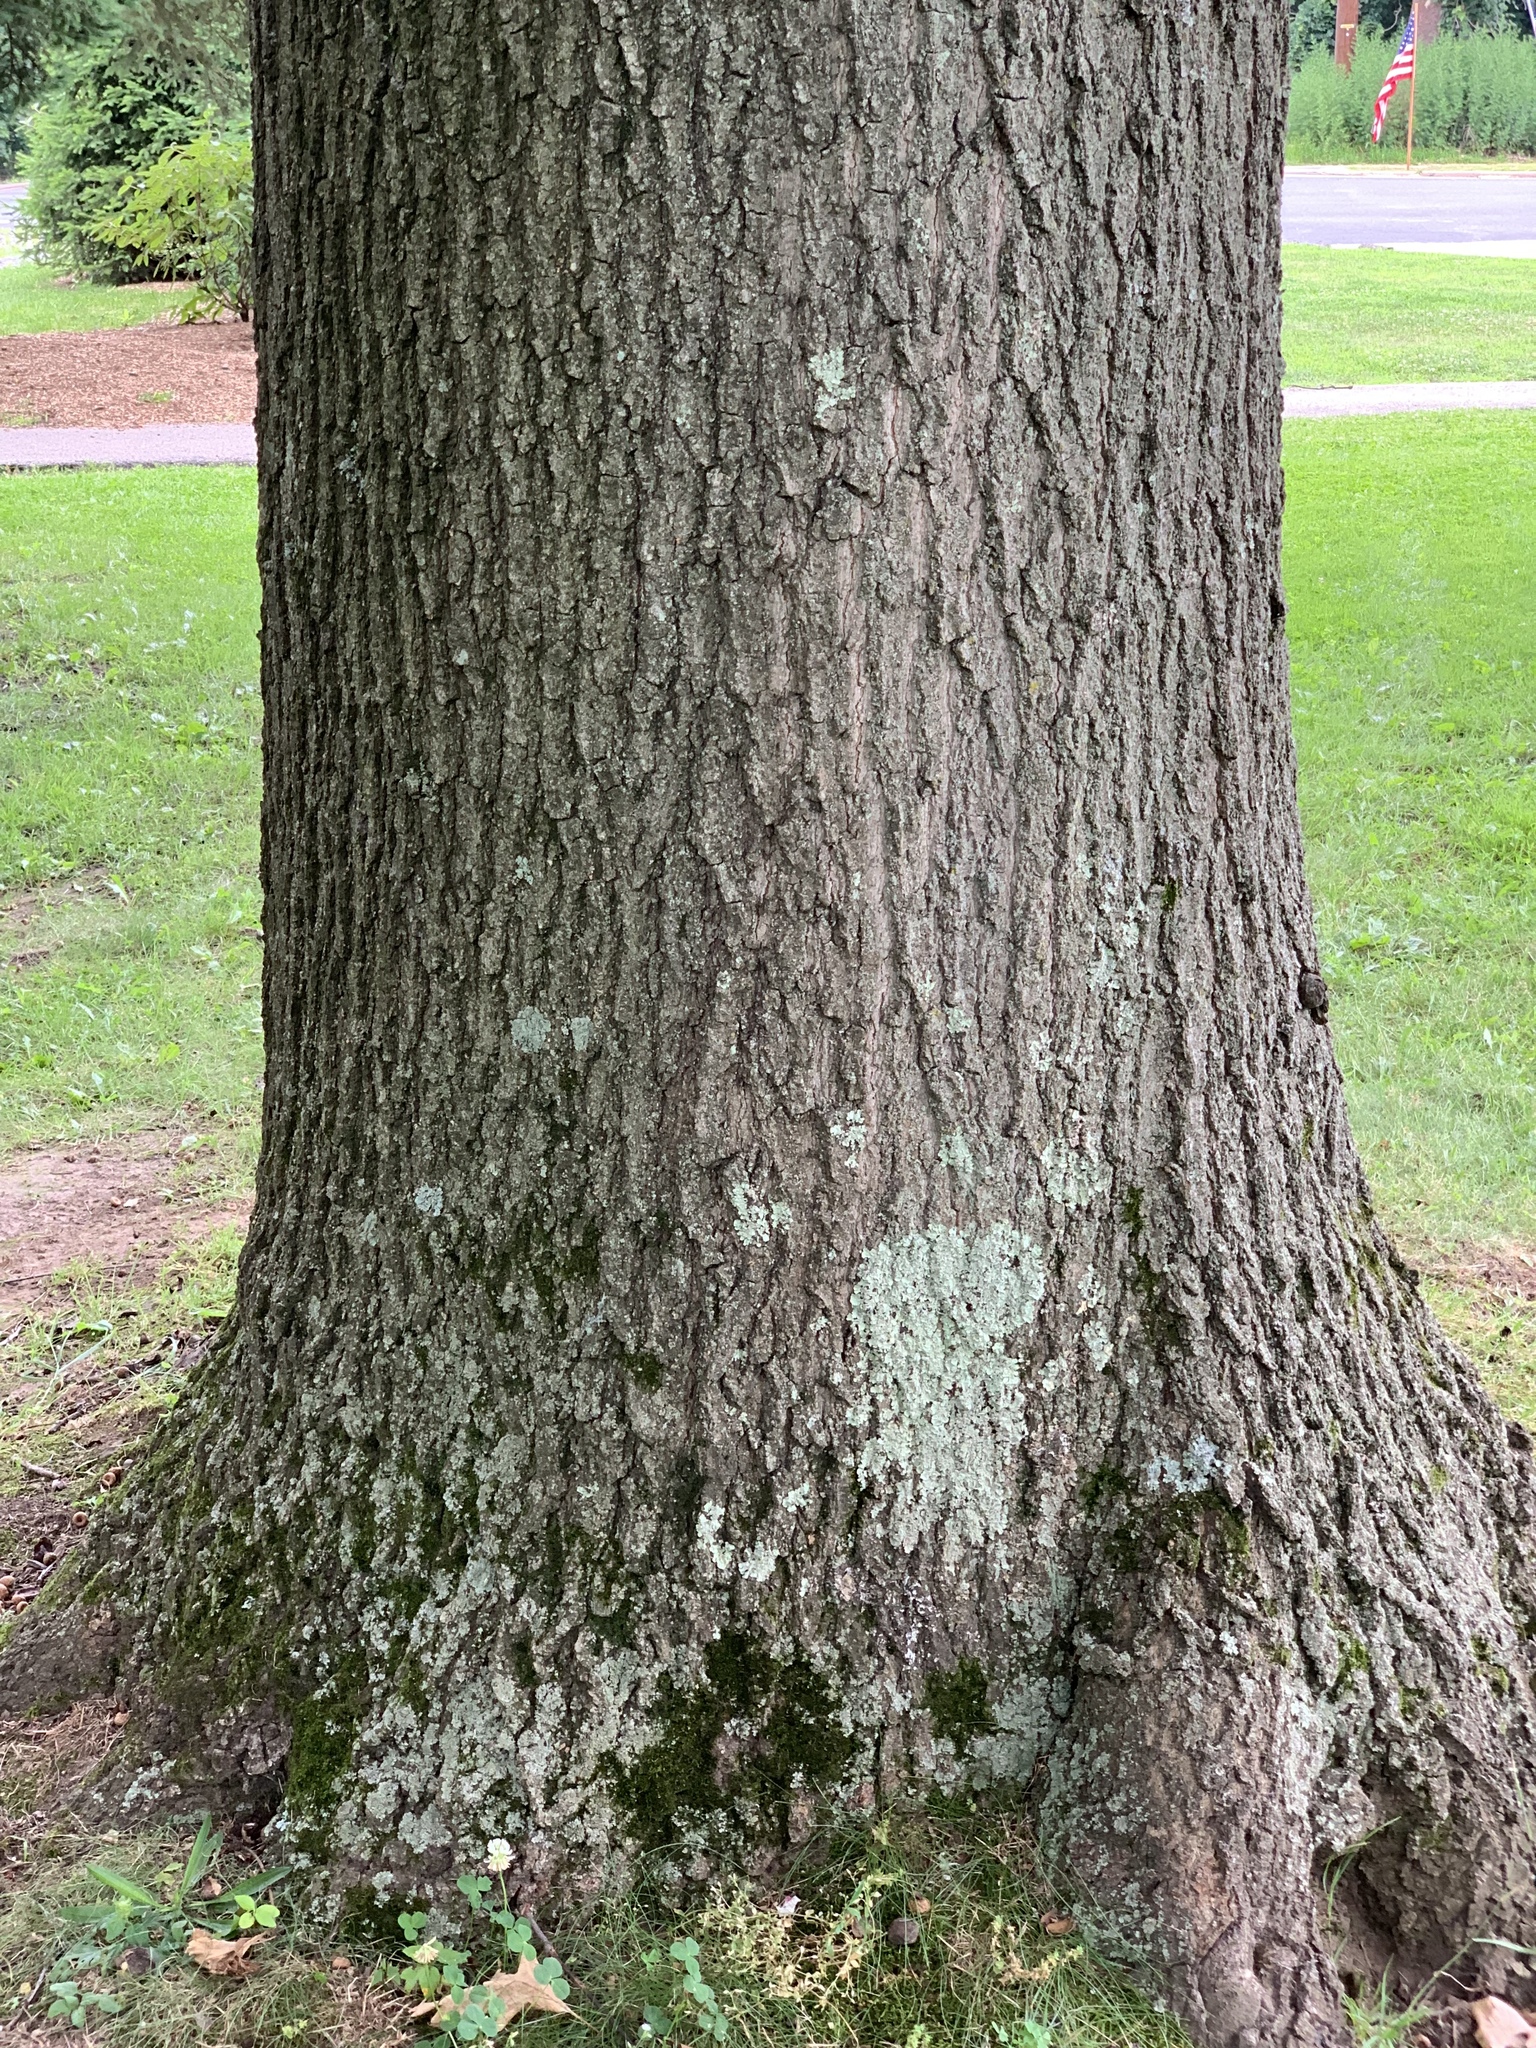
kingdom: Plantae
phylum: Tracheophyta
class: Magnoliopsida
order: Fagales
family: Fagaceae
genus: Quercus
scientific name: Quercus rubra
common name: Red oak
